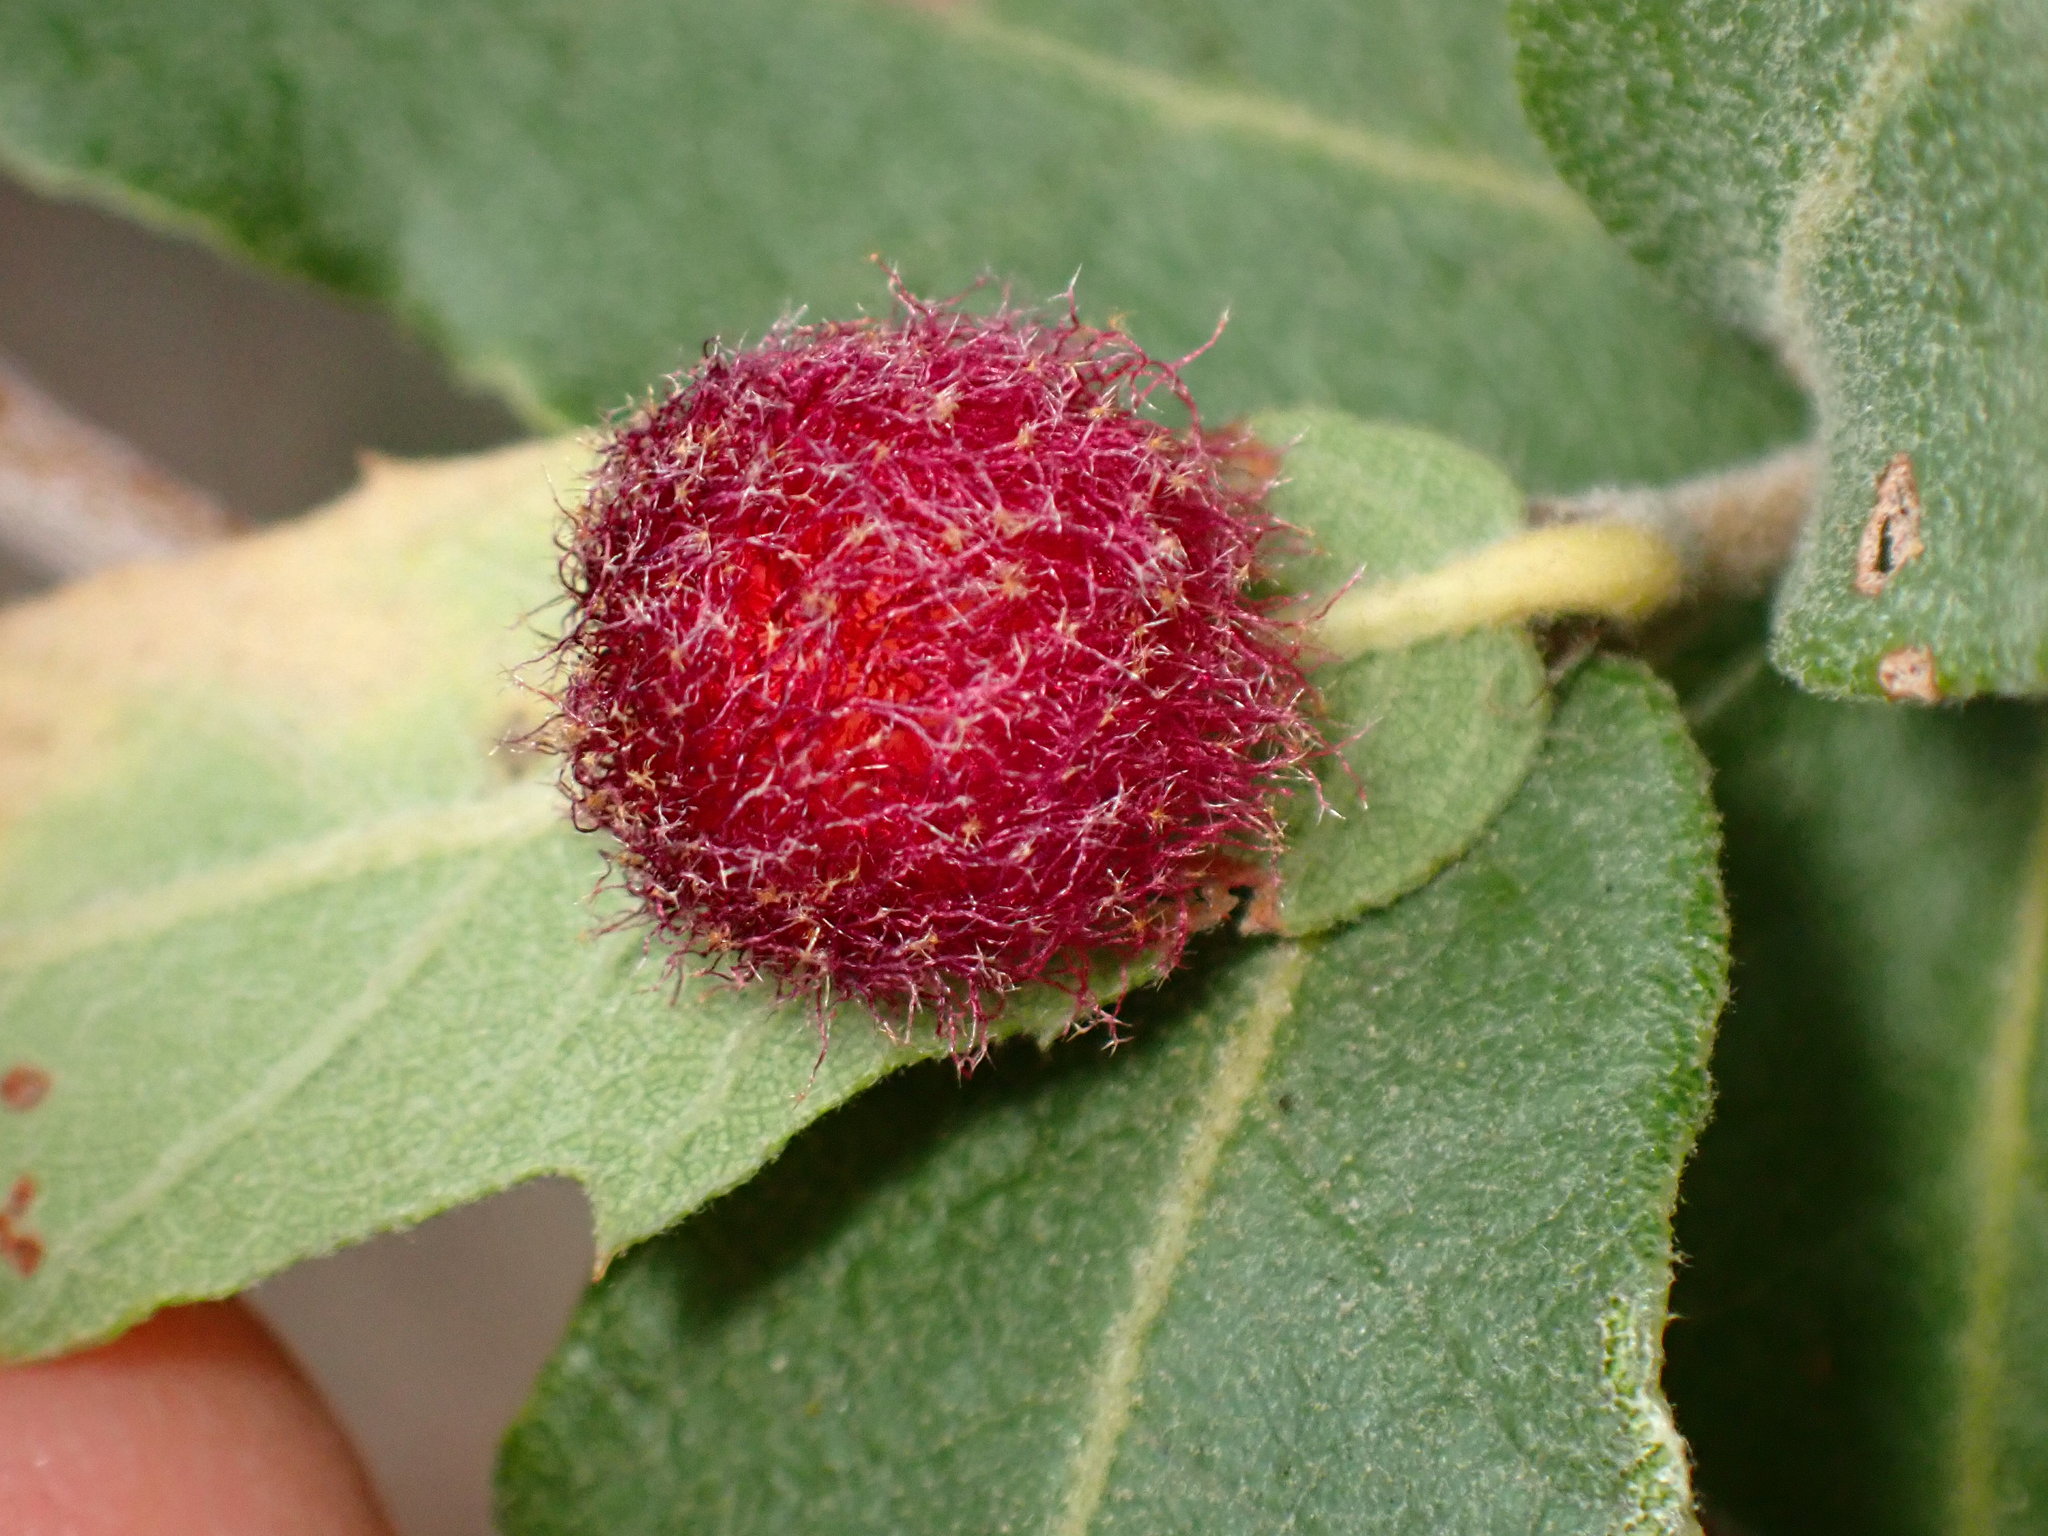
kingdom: Animalia
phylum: Arthropoda
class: Insecta
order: Hymenoptera
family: Cynipidae
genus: Cynips
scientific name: Cynips
